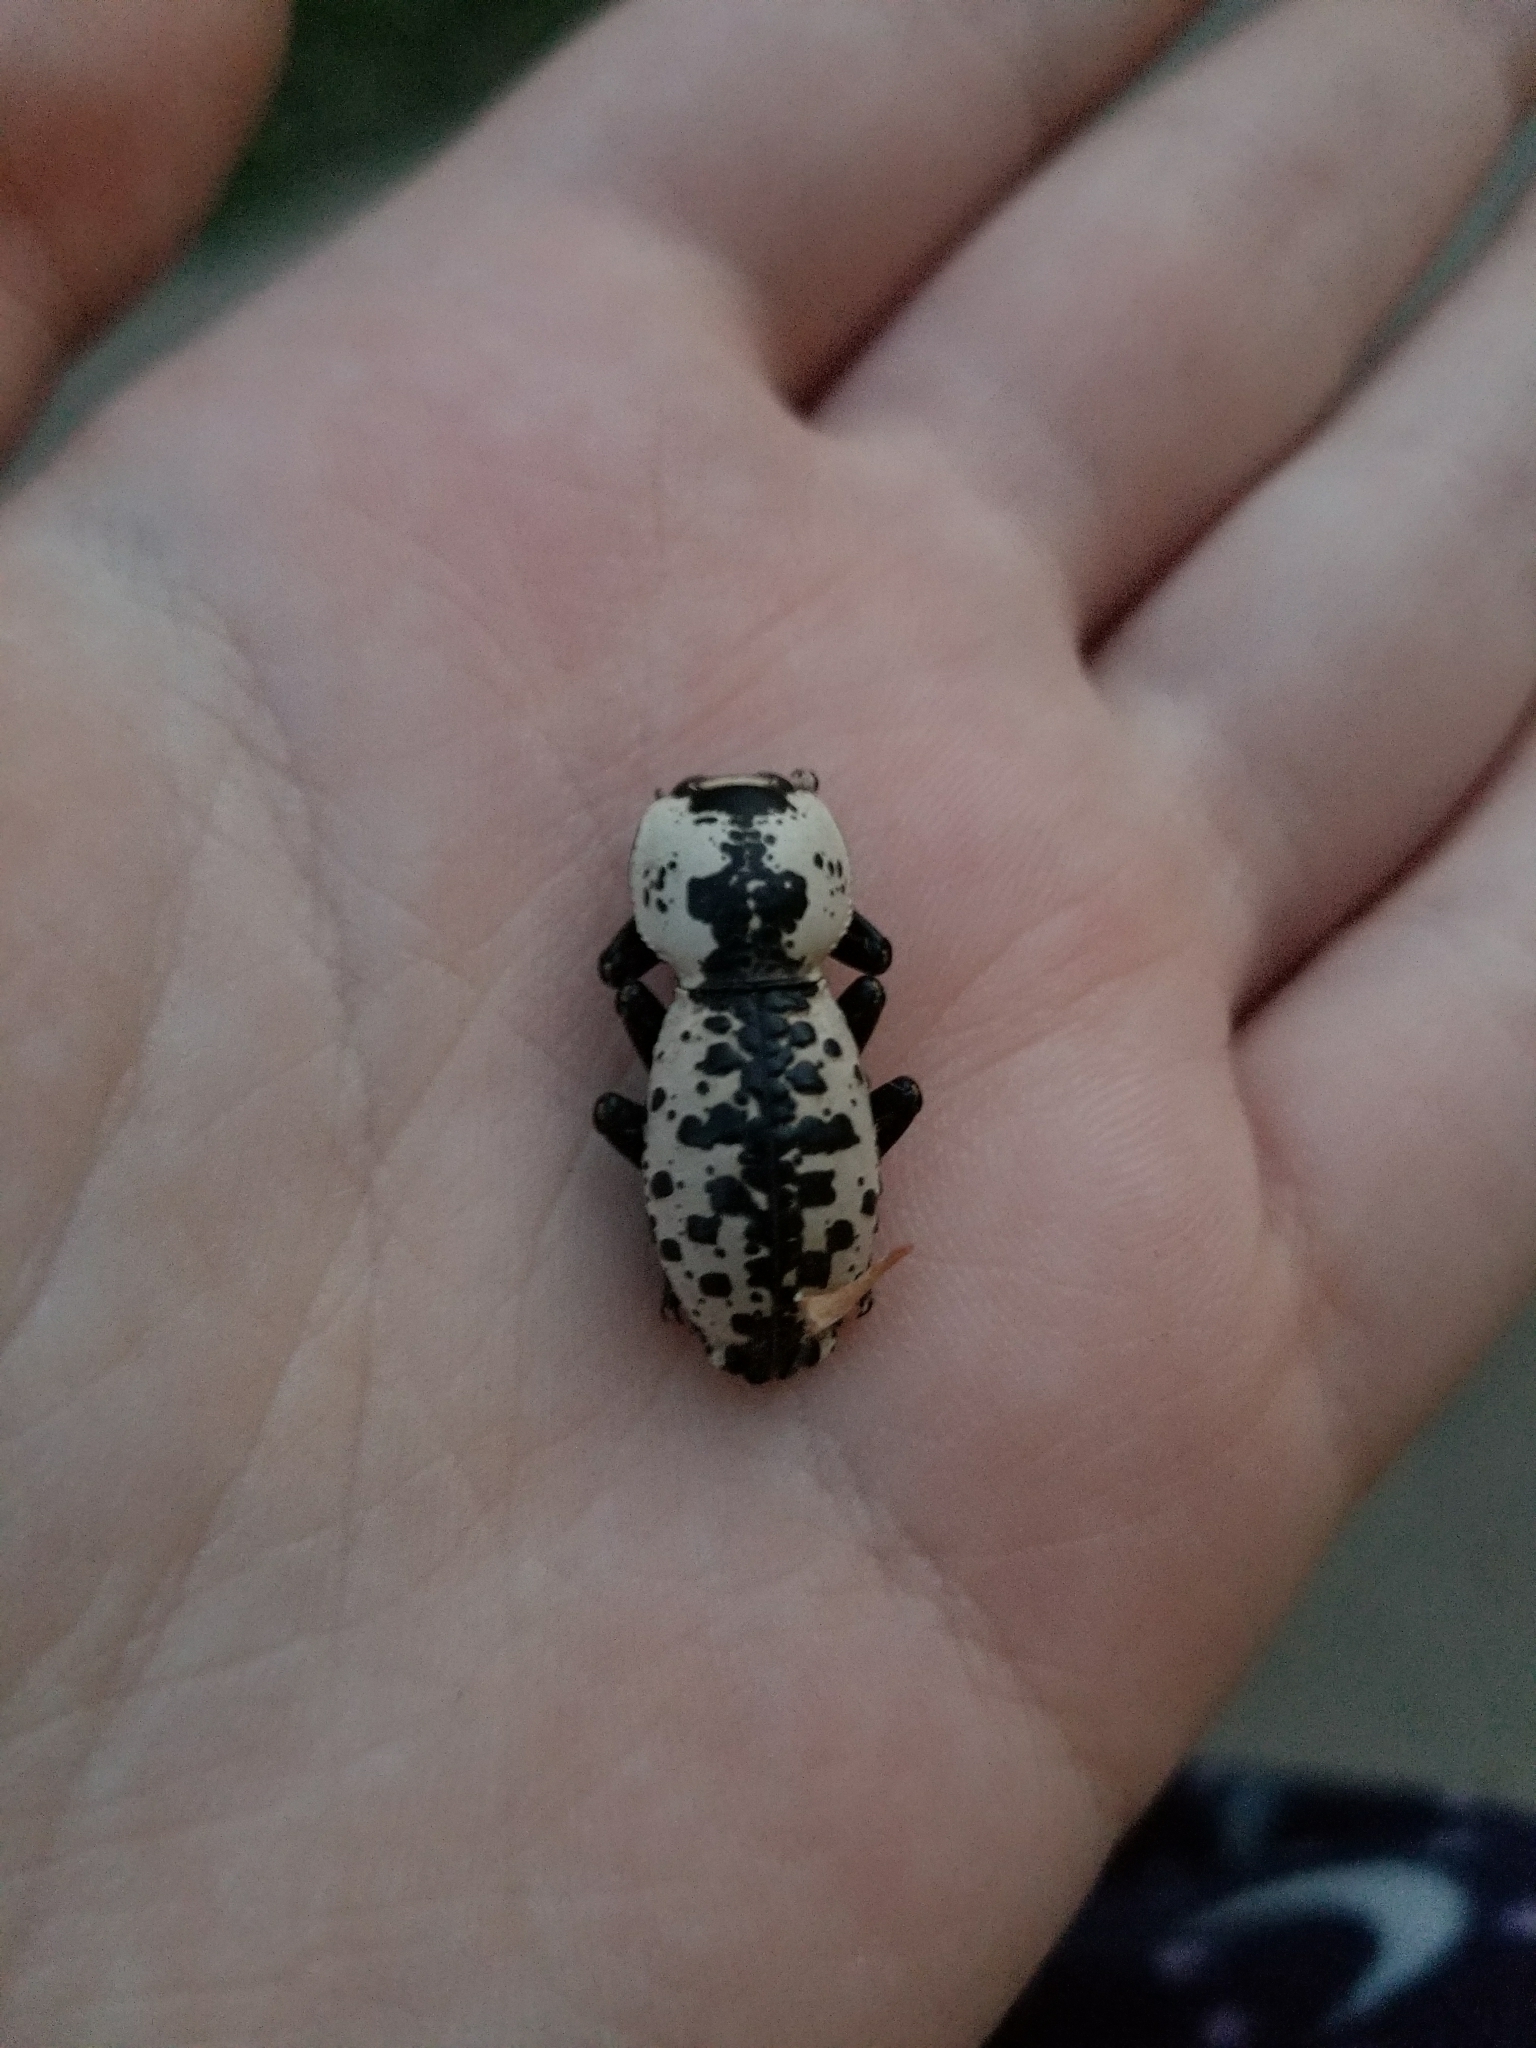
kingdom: Animalia
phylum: Arthropoda
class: Insecta
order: Coleoptera
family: Zopheridae
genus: Zopherus
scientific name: Zopherus nodulosus
